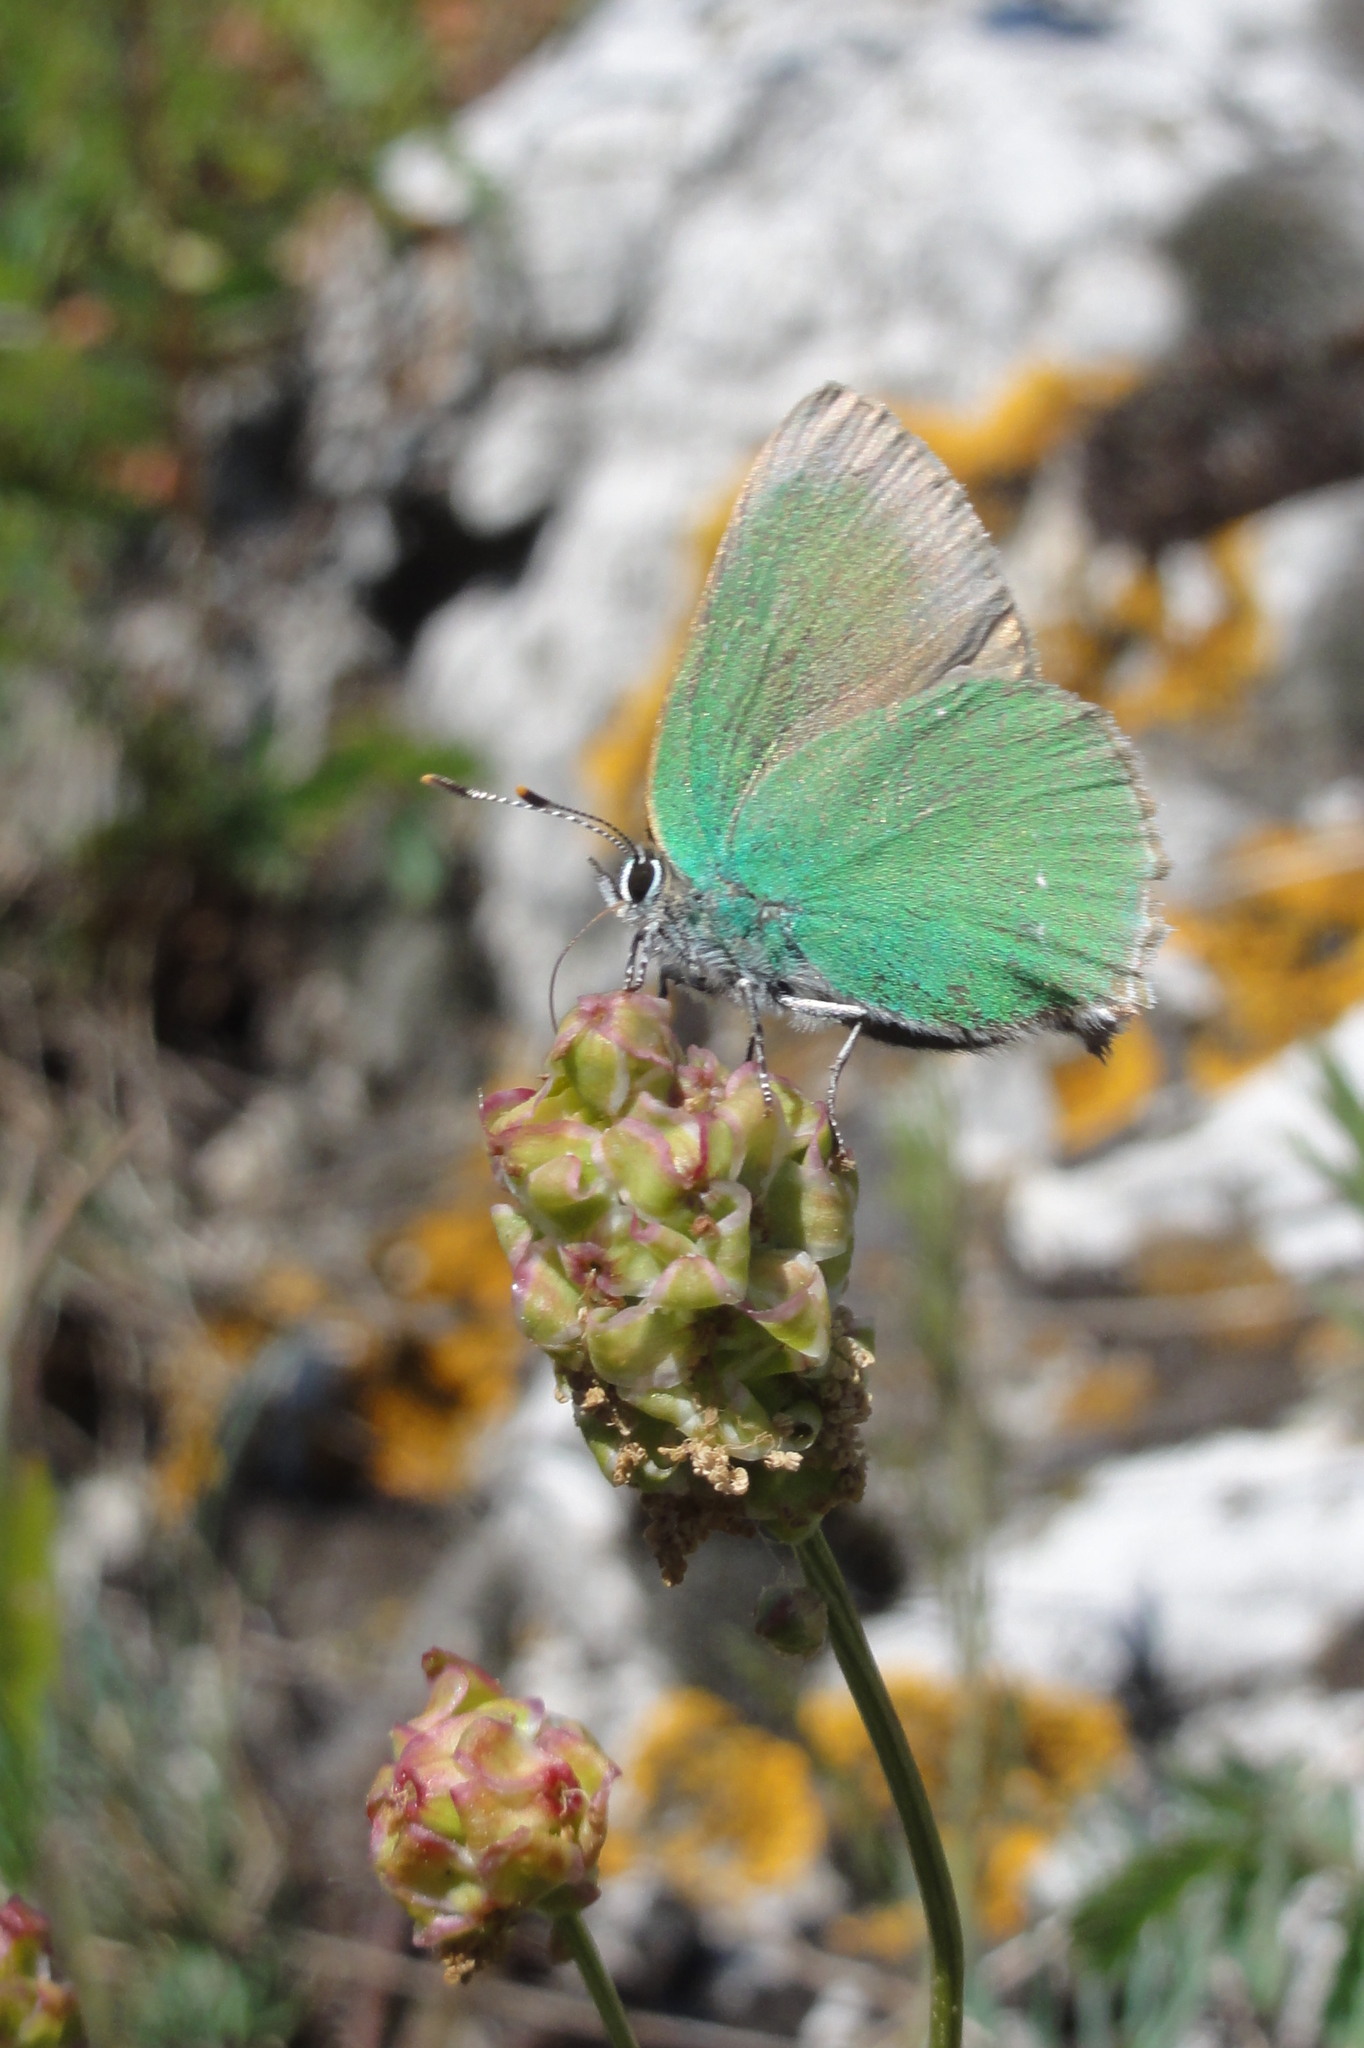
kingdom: Animalia
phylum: Arthropoda
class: Insecta
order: Lepidoptera
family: Lycaenidae
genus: Callophrys
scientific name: Callophrys rubi
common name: Green hairstreak
